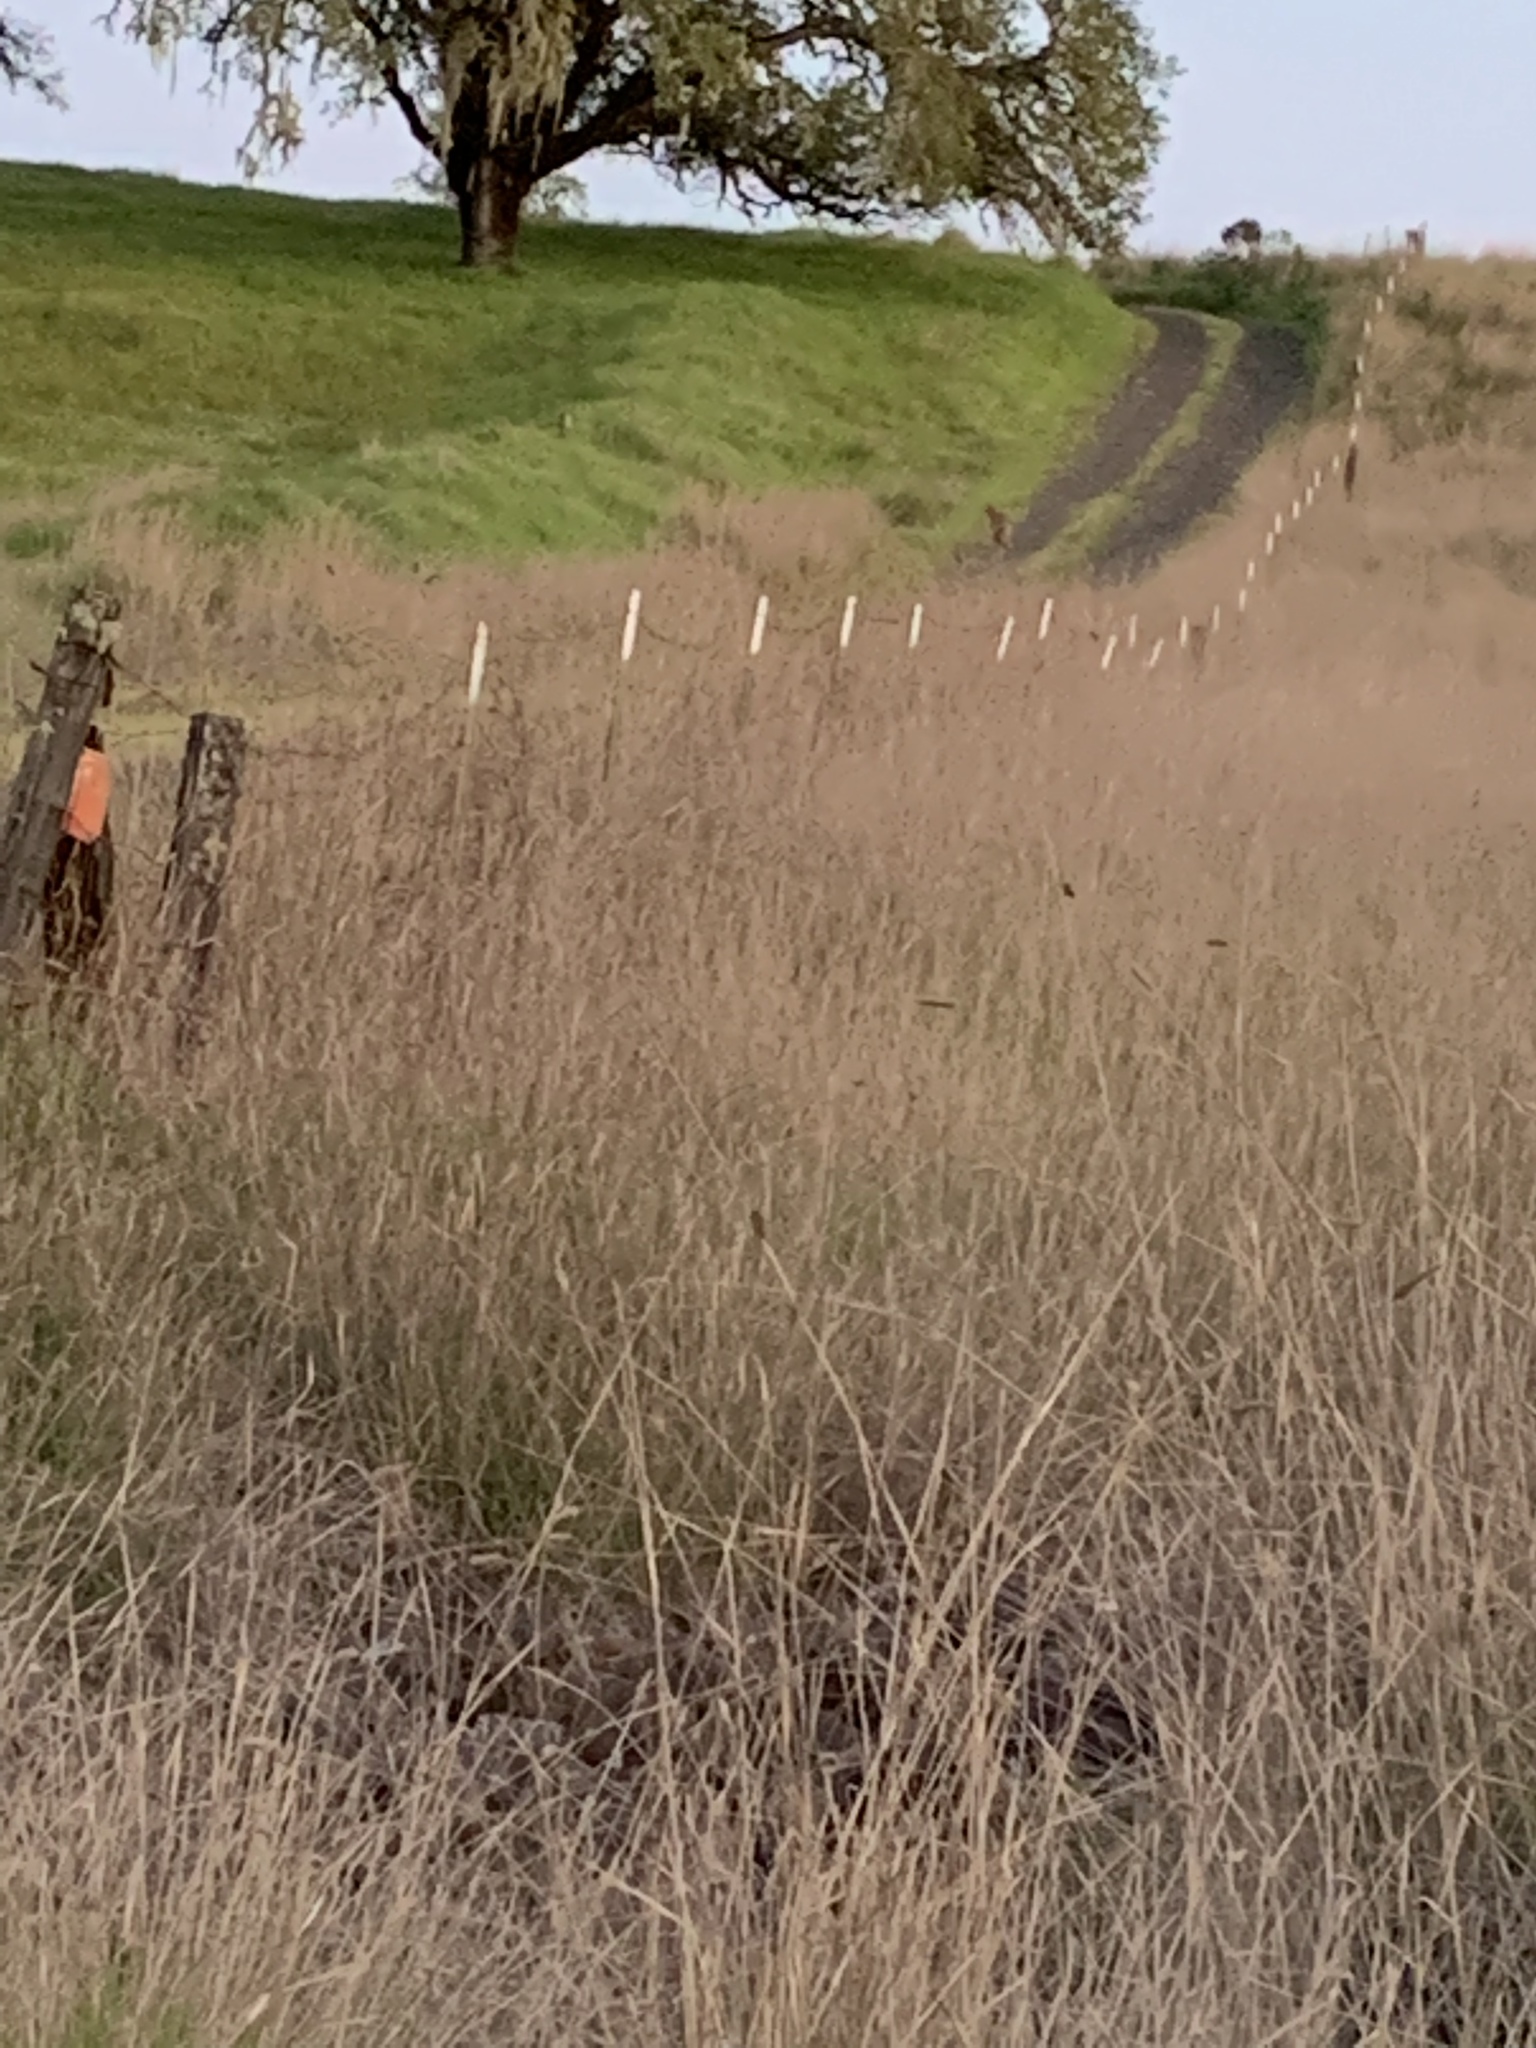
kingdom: Animalia
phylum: Chordata
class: Mammalia
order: Carnivora
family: Canidae
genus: Canis
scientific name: Canis latrans
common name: Coyote
